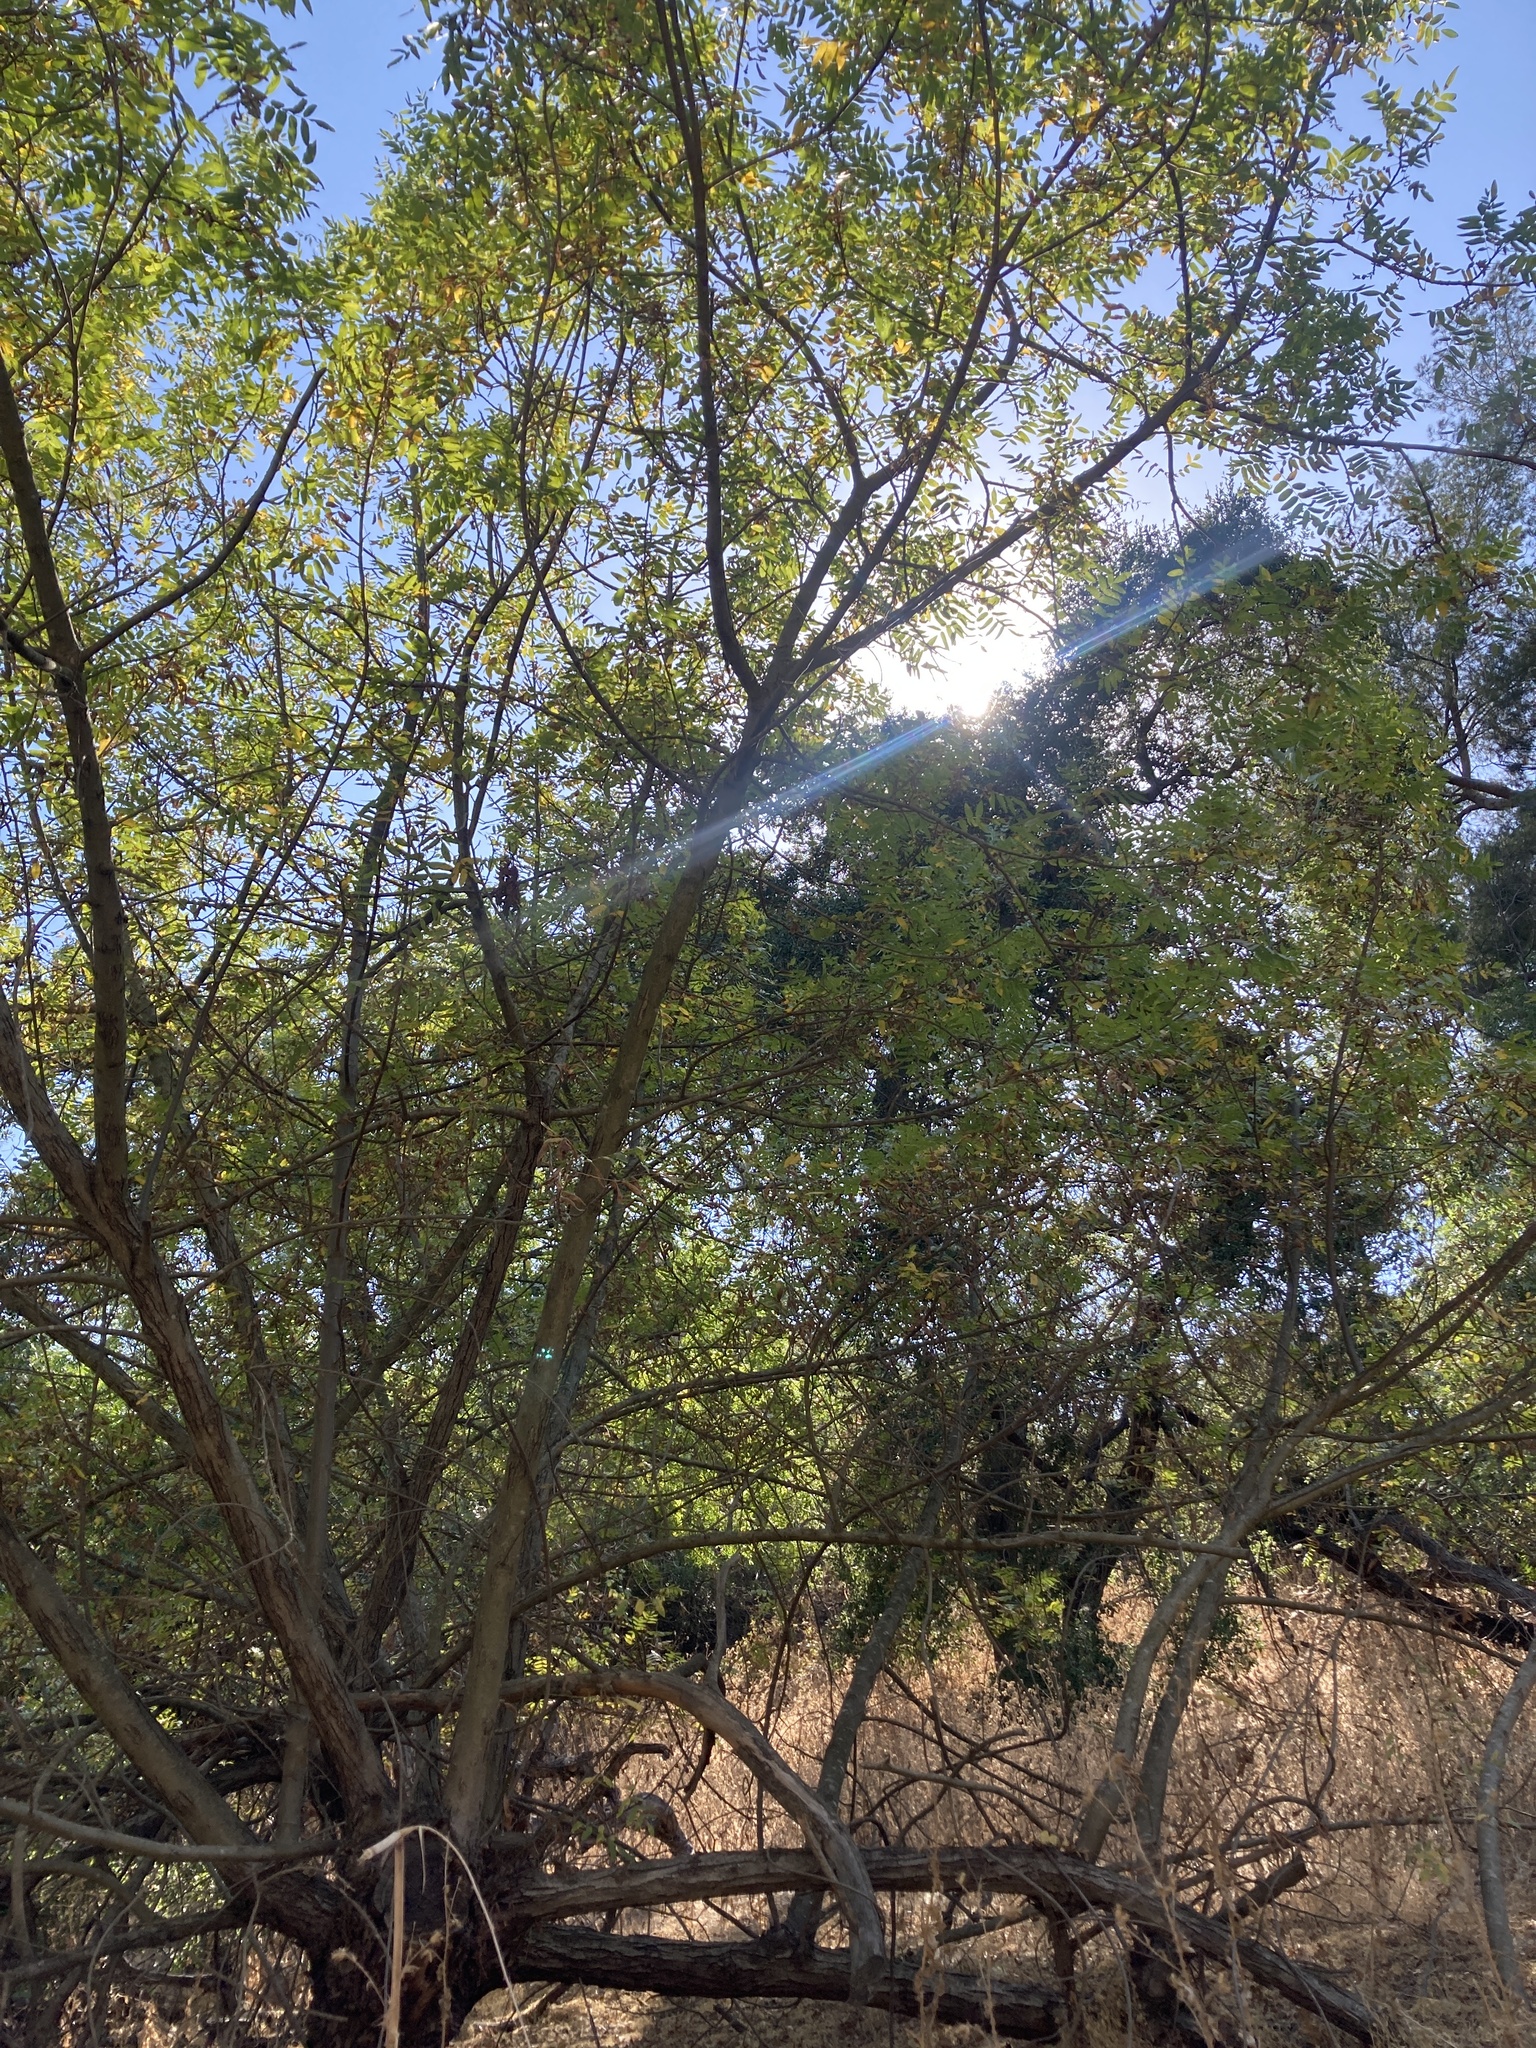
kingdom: Plantae
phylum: Tracheophyta
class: Magnoliopsida
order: Fagales
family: Juglandaceae
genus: Juglans
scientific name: Juglans californica
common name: Southern california black walnut
